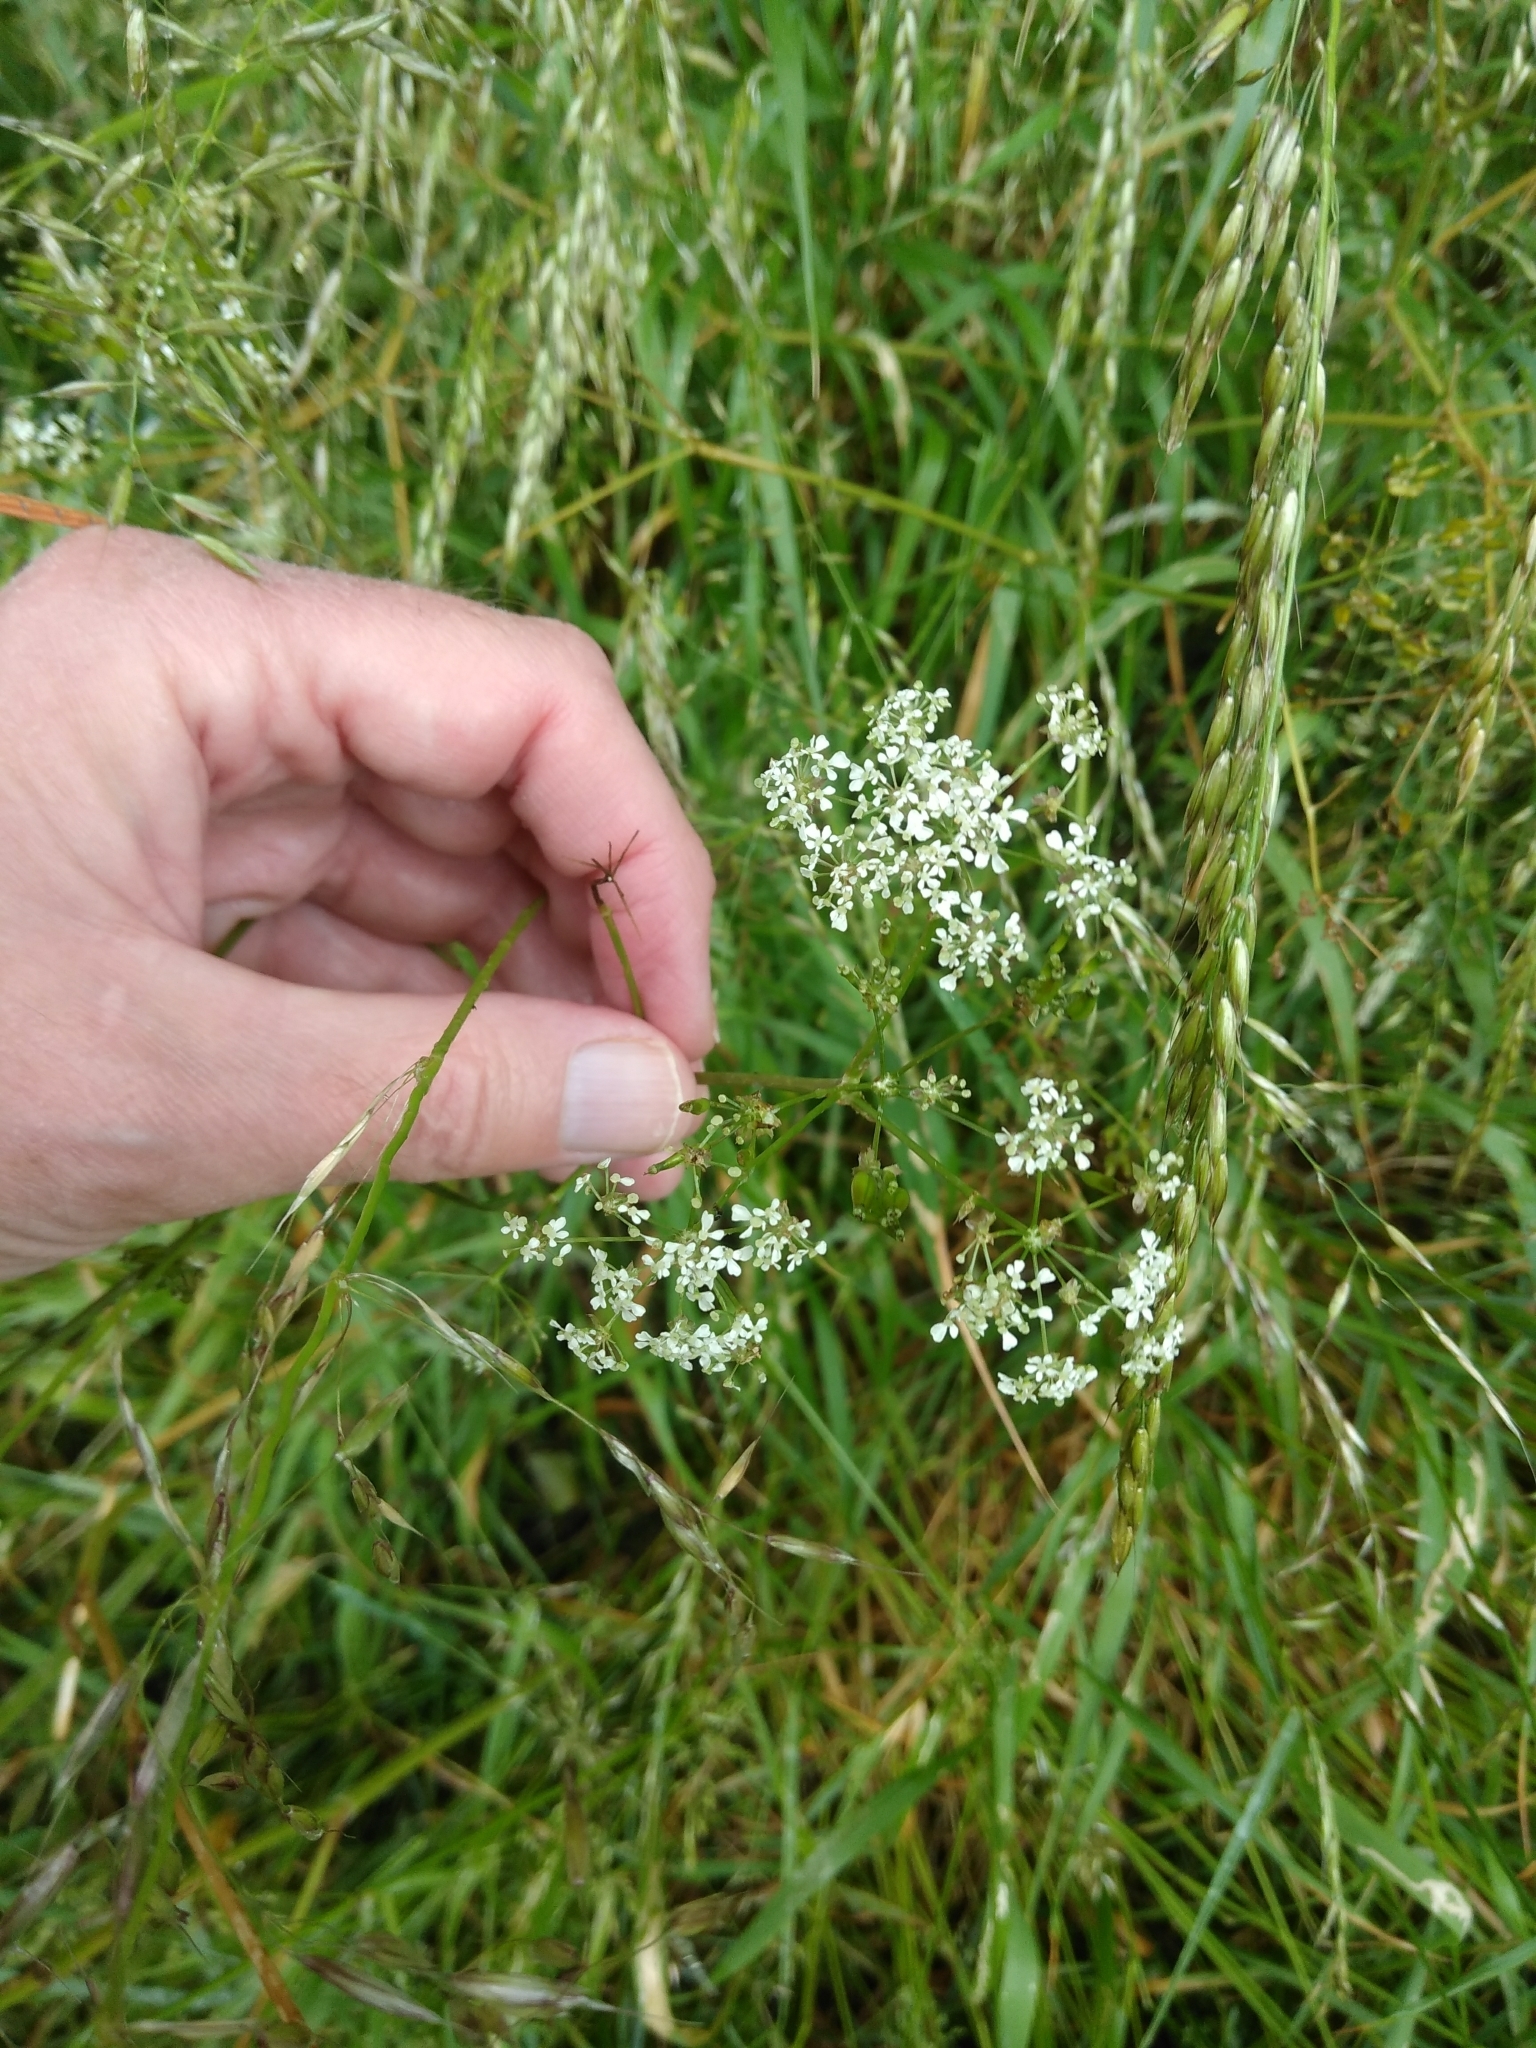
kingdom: Plantae
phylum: Tracheophyta
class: Magnoliopsida
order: Apiales
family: Apiaceae
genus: Anthriscus
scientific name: Anthriscus sylvestris
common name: Cow parsley
